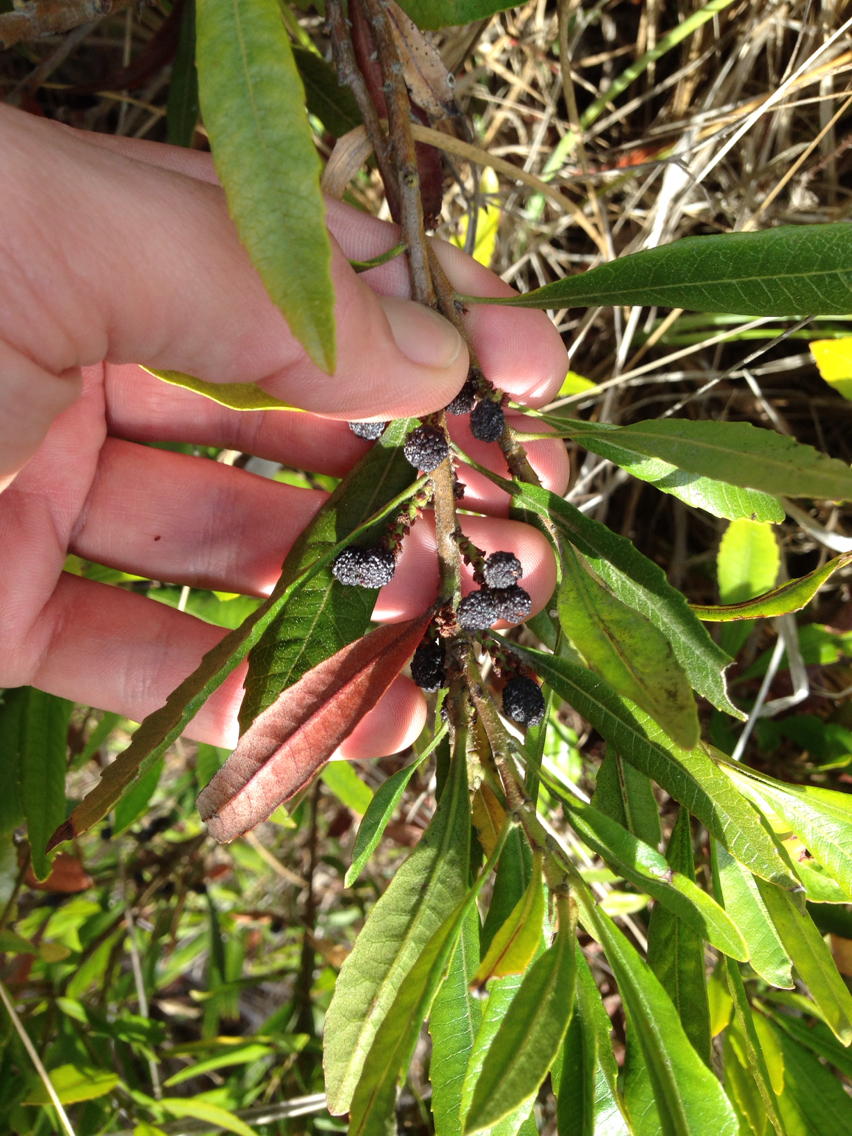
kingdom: Plantae
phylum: Tracheophyta
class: Magnoliopsida
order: Fagales
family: Myricaceae
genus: Morella
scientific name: Morella californica
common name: California wax-myrtle
